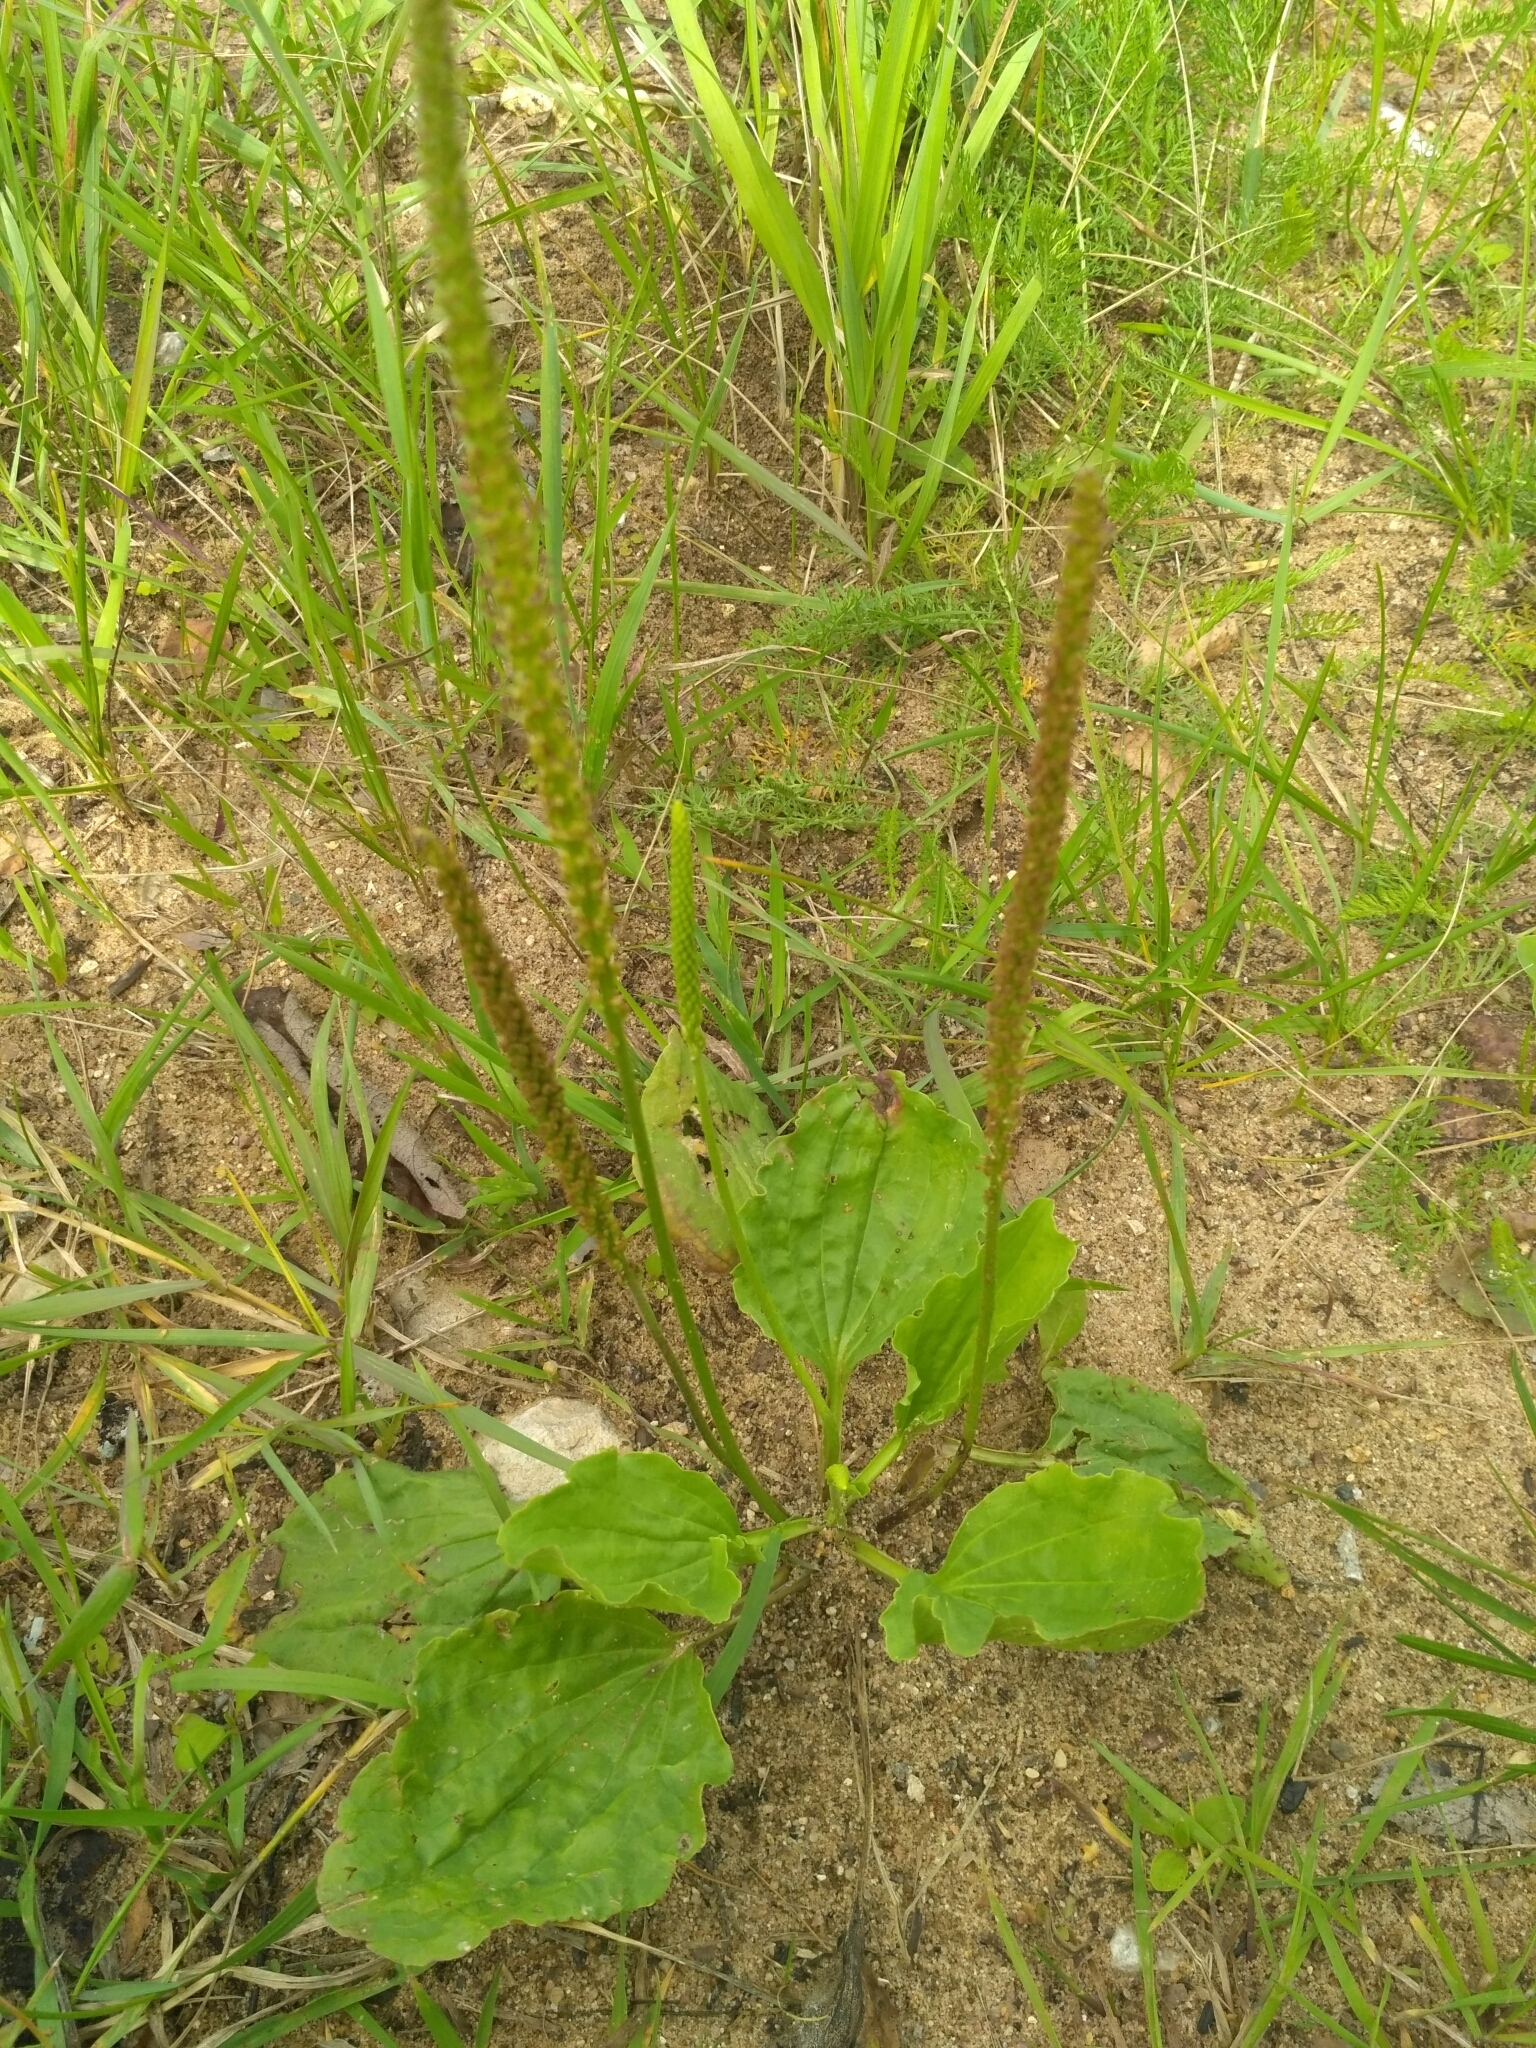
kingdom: Plantae
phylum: Tracheophyta
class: Magnoliopsida
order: Lamiales
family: Plantaginaceae
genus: Plantago
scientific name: Plantago major
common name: Common plantain
